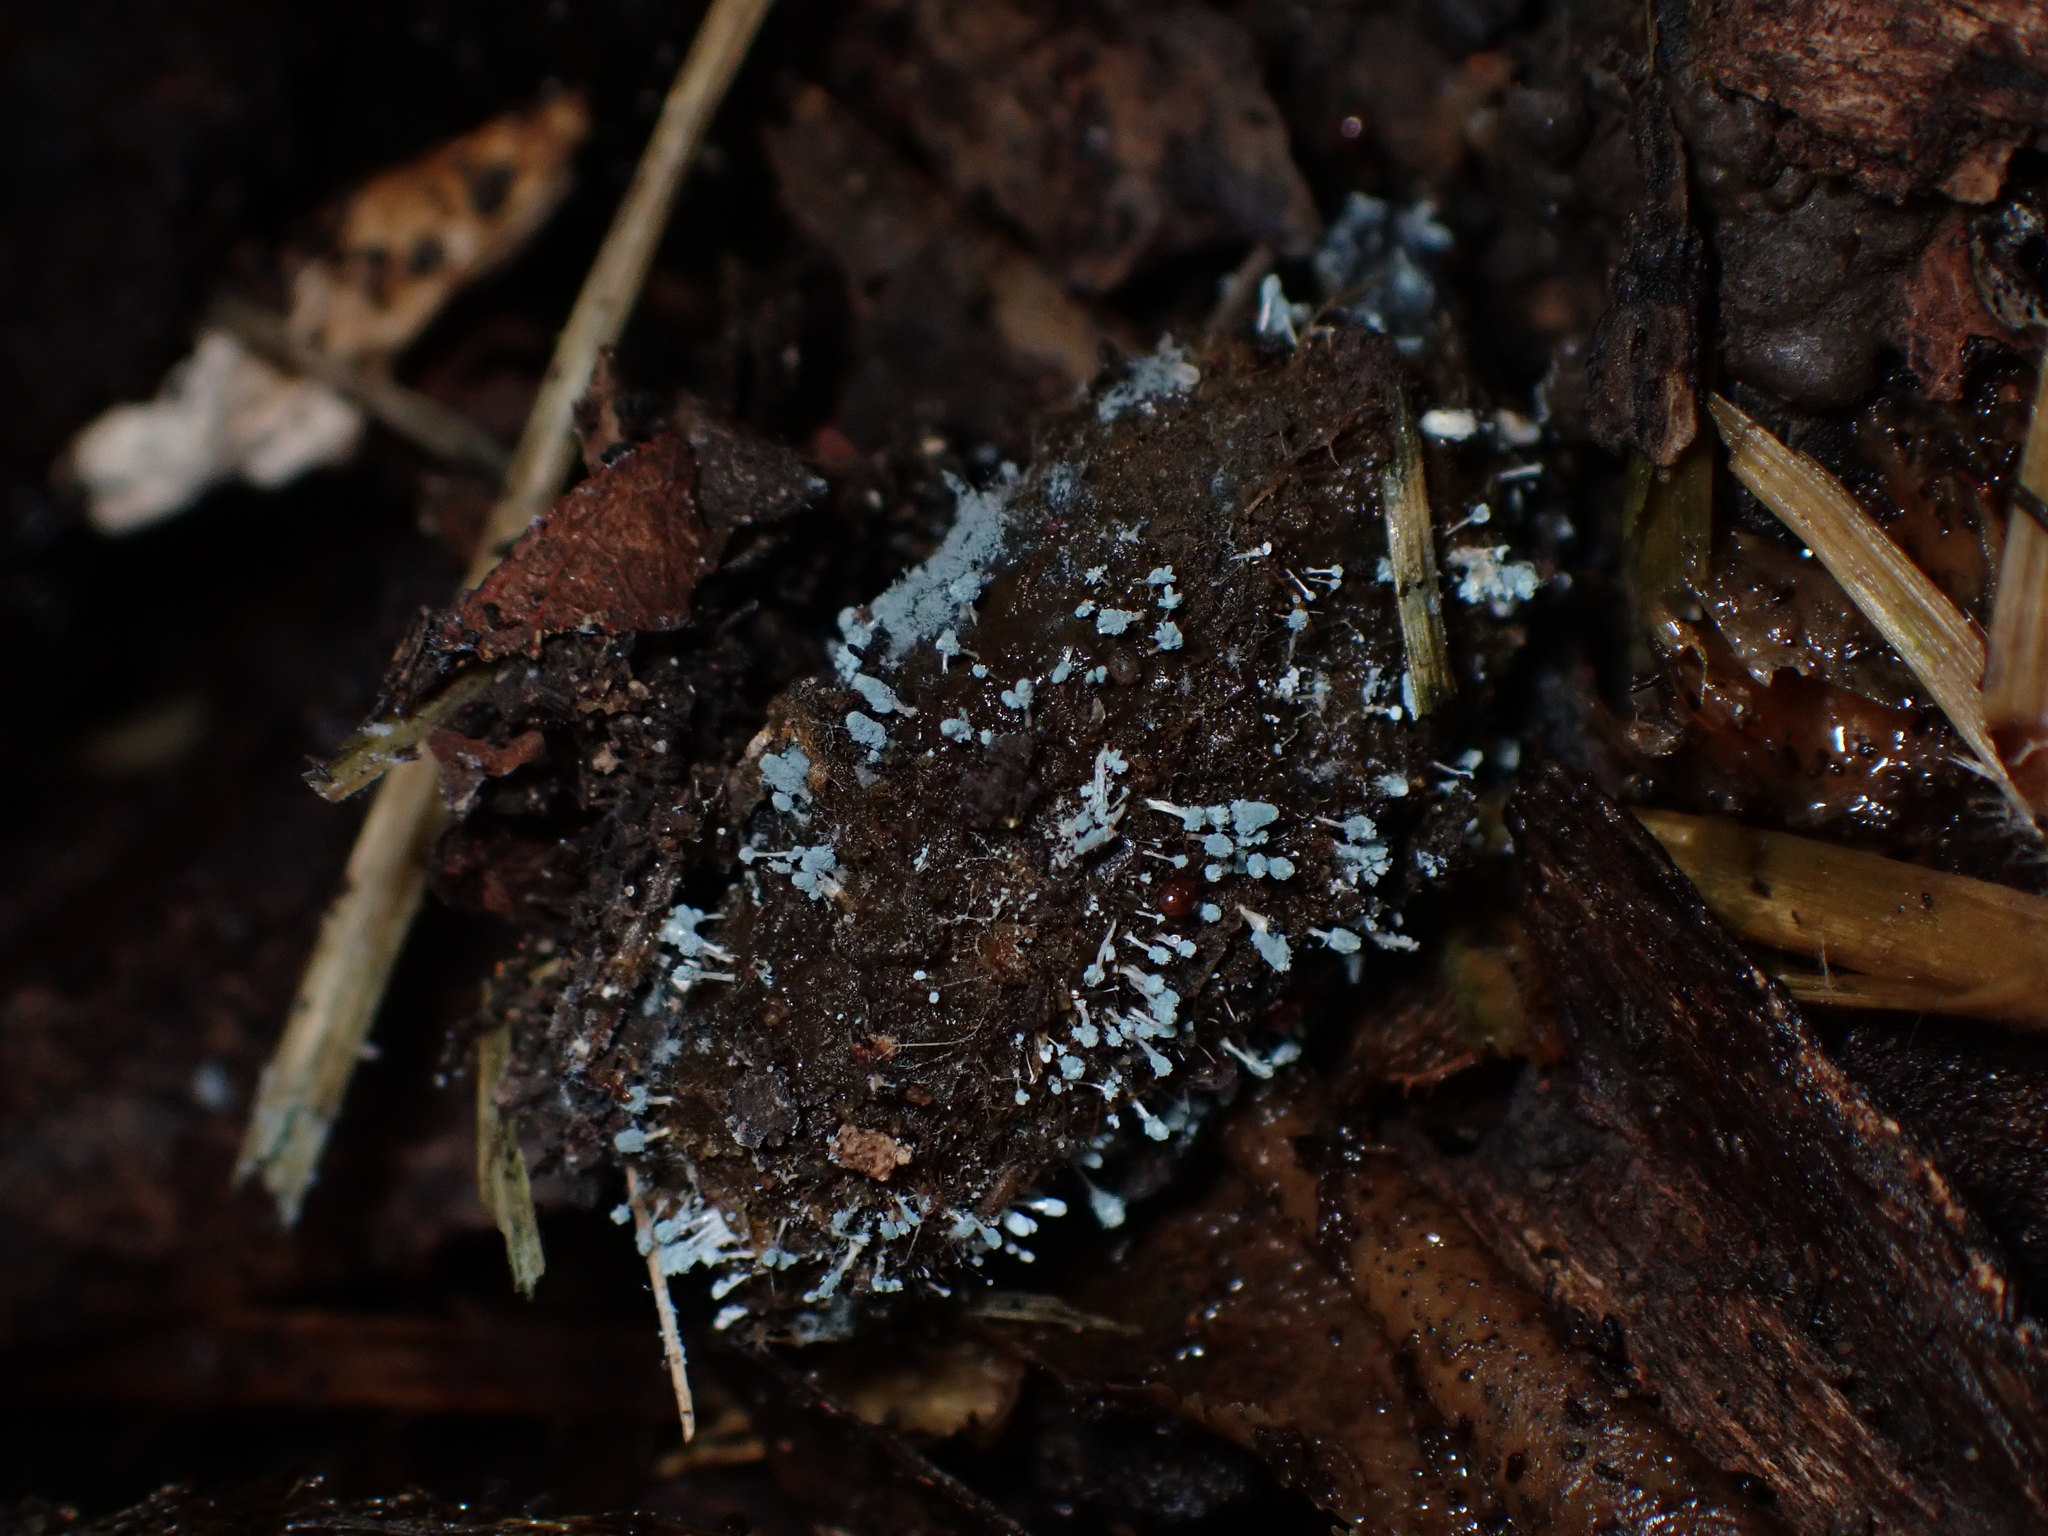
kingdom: Fungi
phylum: Ascomycota
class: Eurotiomycetes
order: Eurotiales
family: Aspergillaceae
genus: Penicillium
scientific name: Penicillium vulpinum
